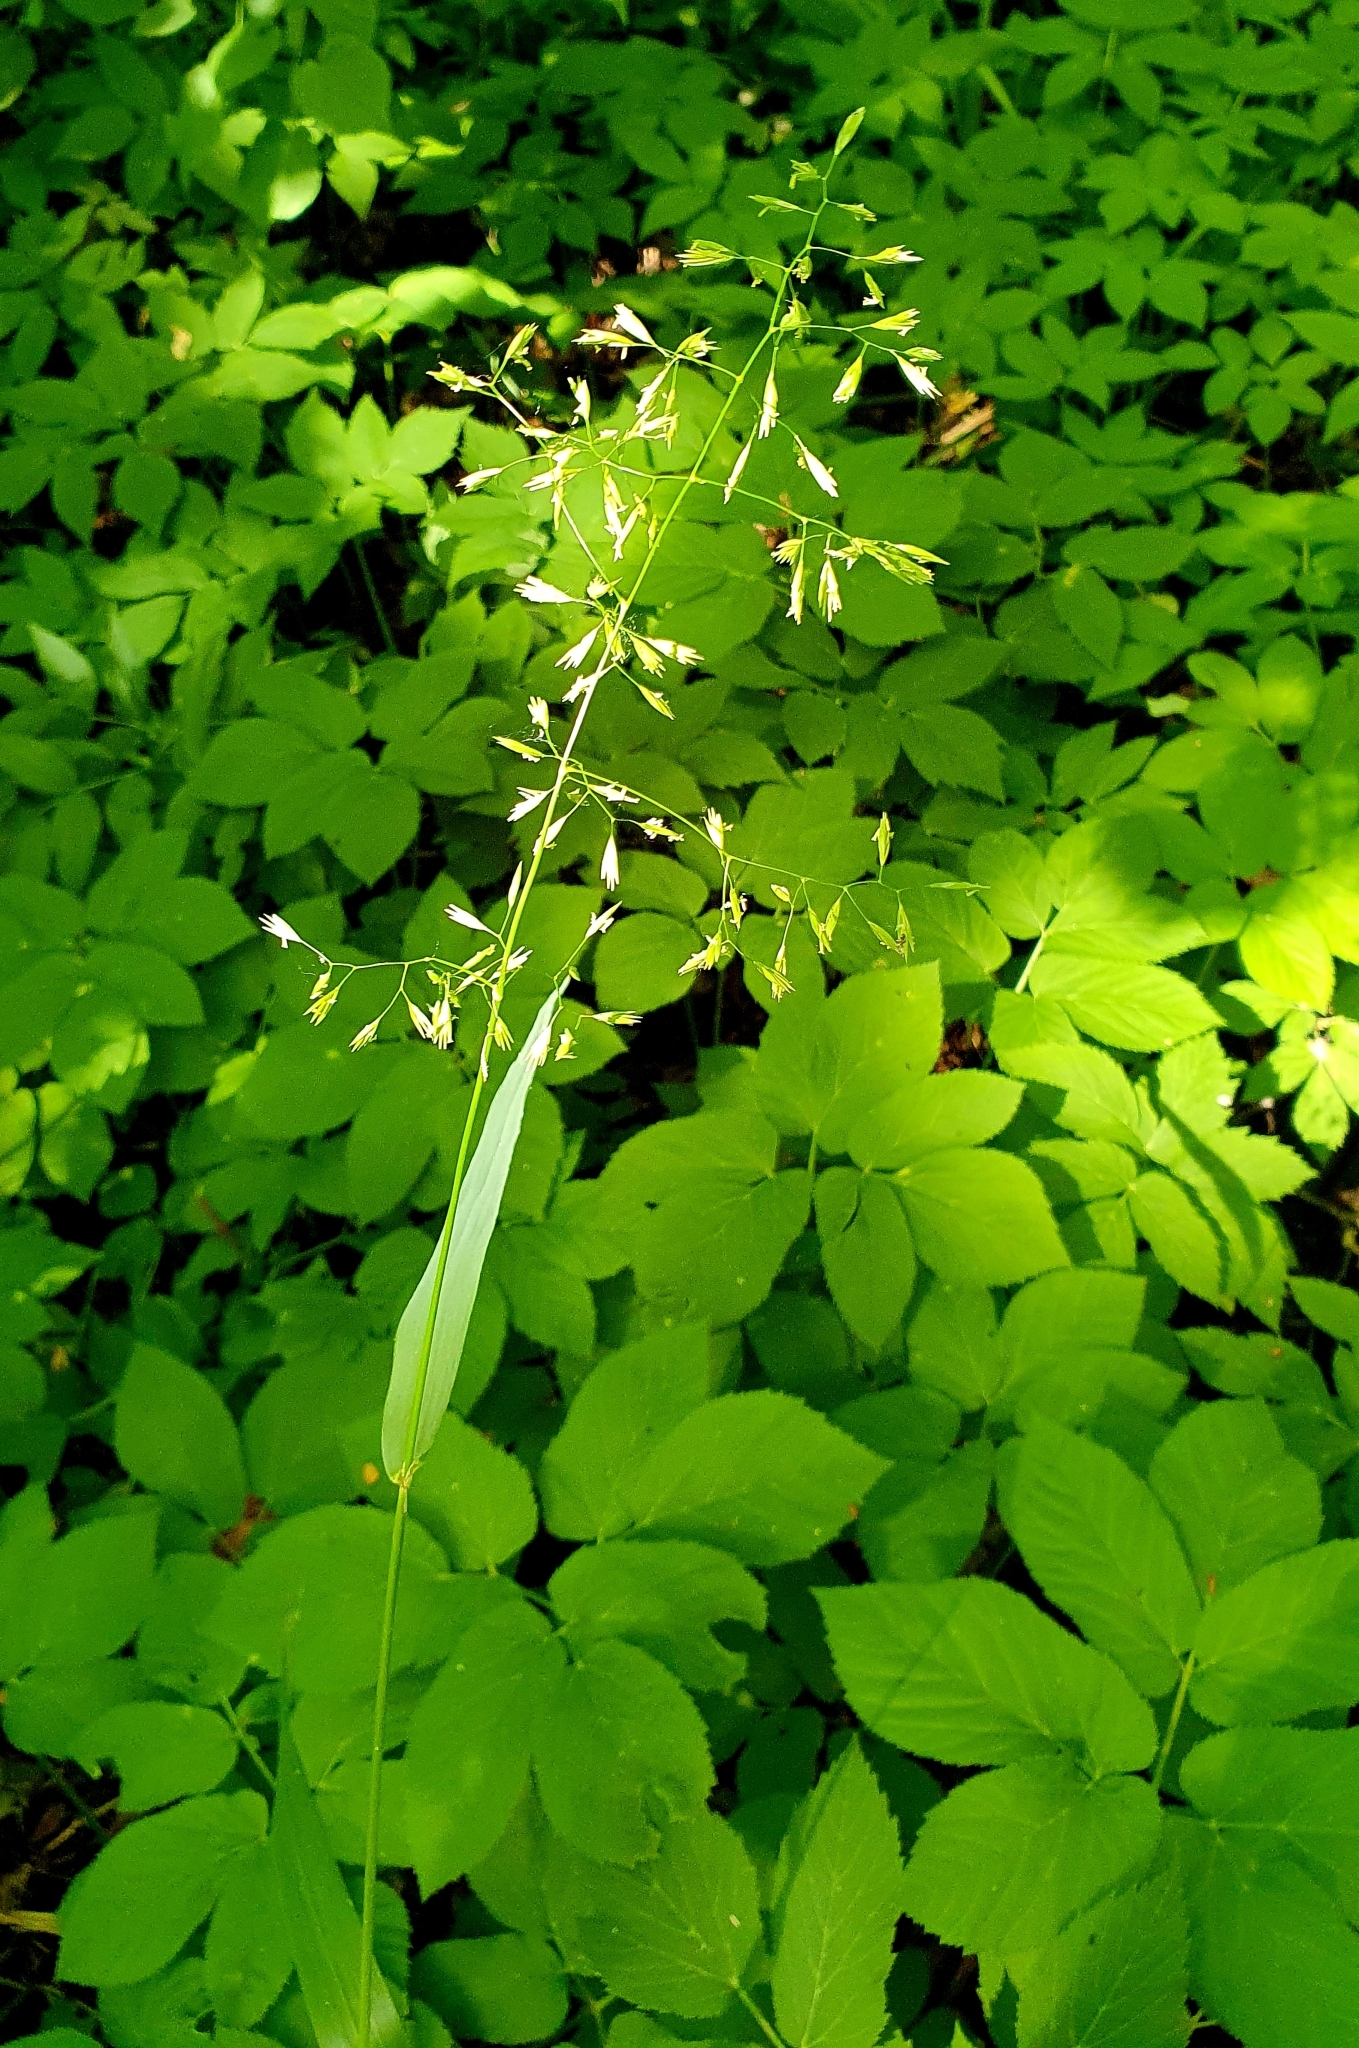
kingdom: Plantae
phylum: Tracheophyta
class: Liliopsida
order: Poales
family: Poaceae
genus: Milium
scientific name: Milium effusum
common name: Wood millet
